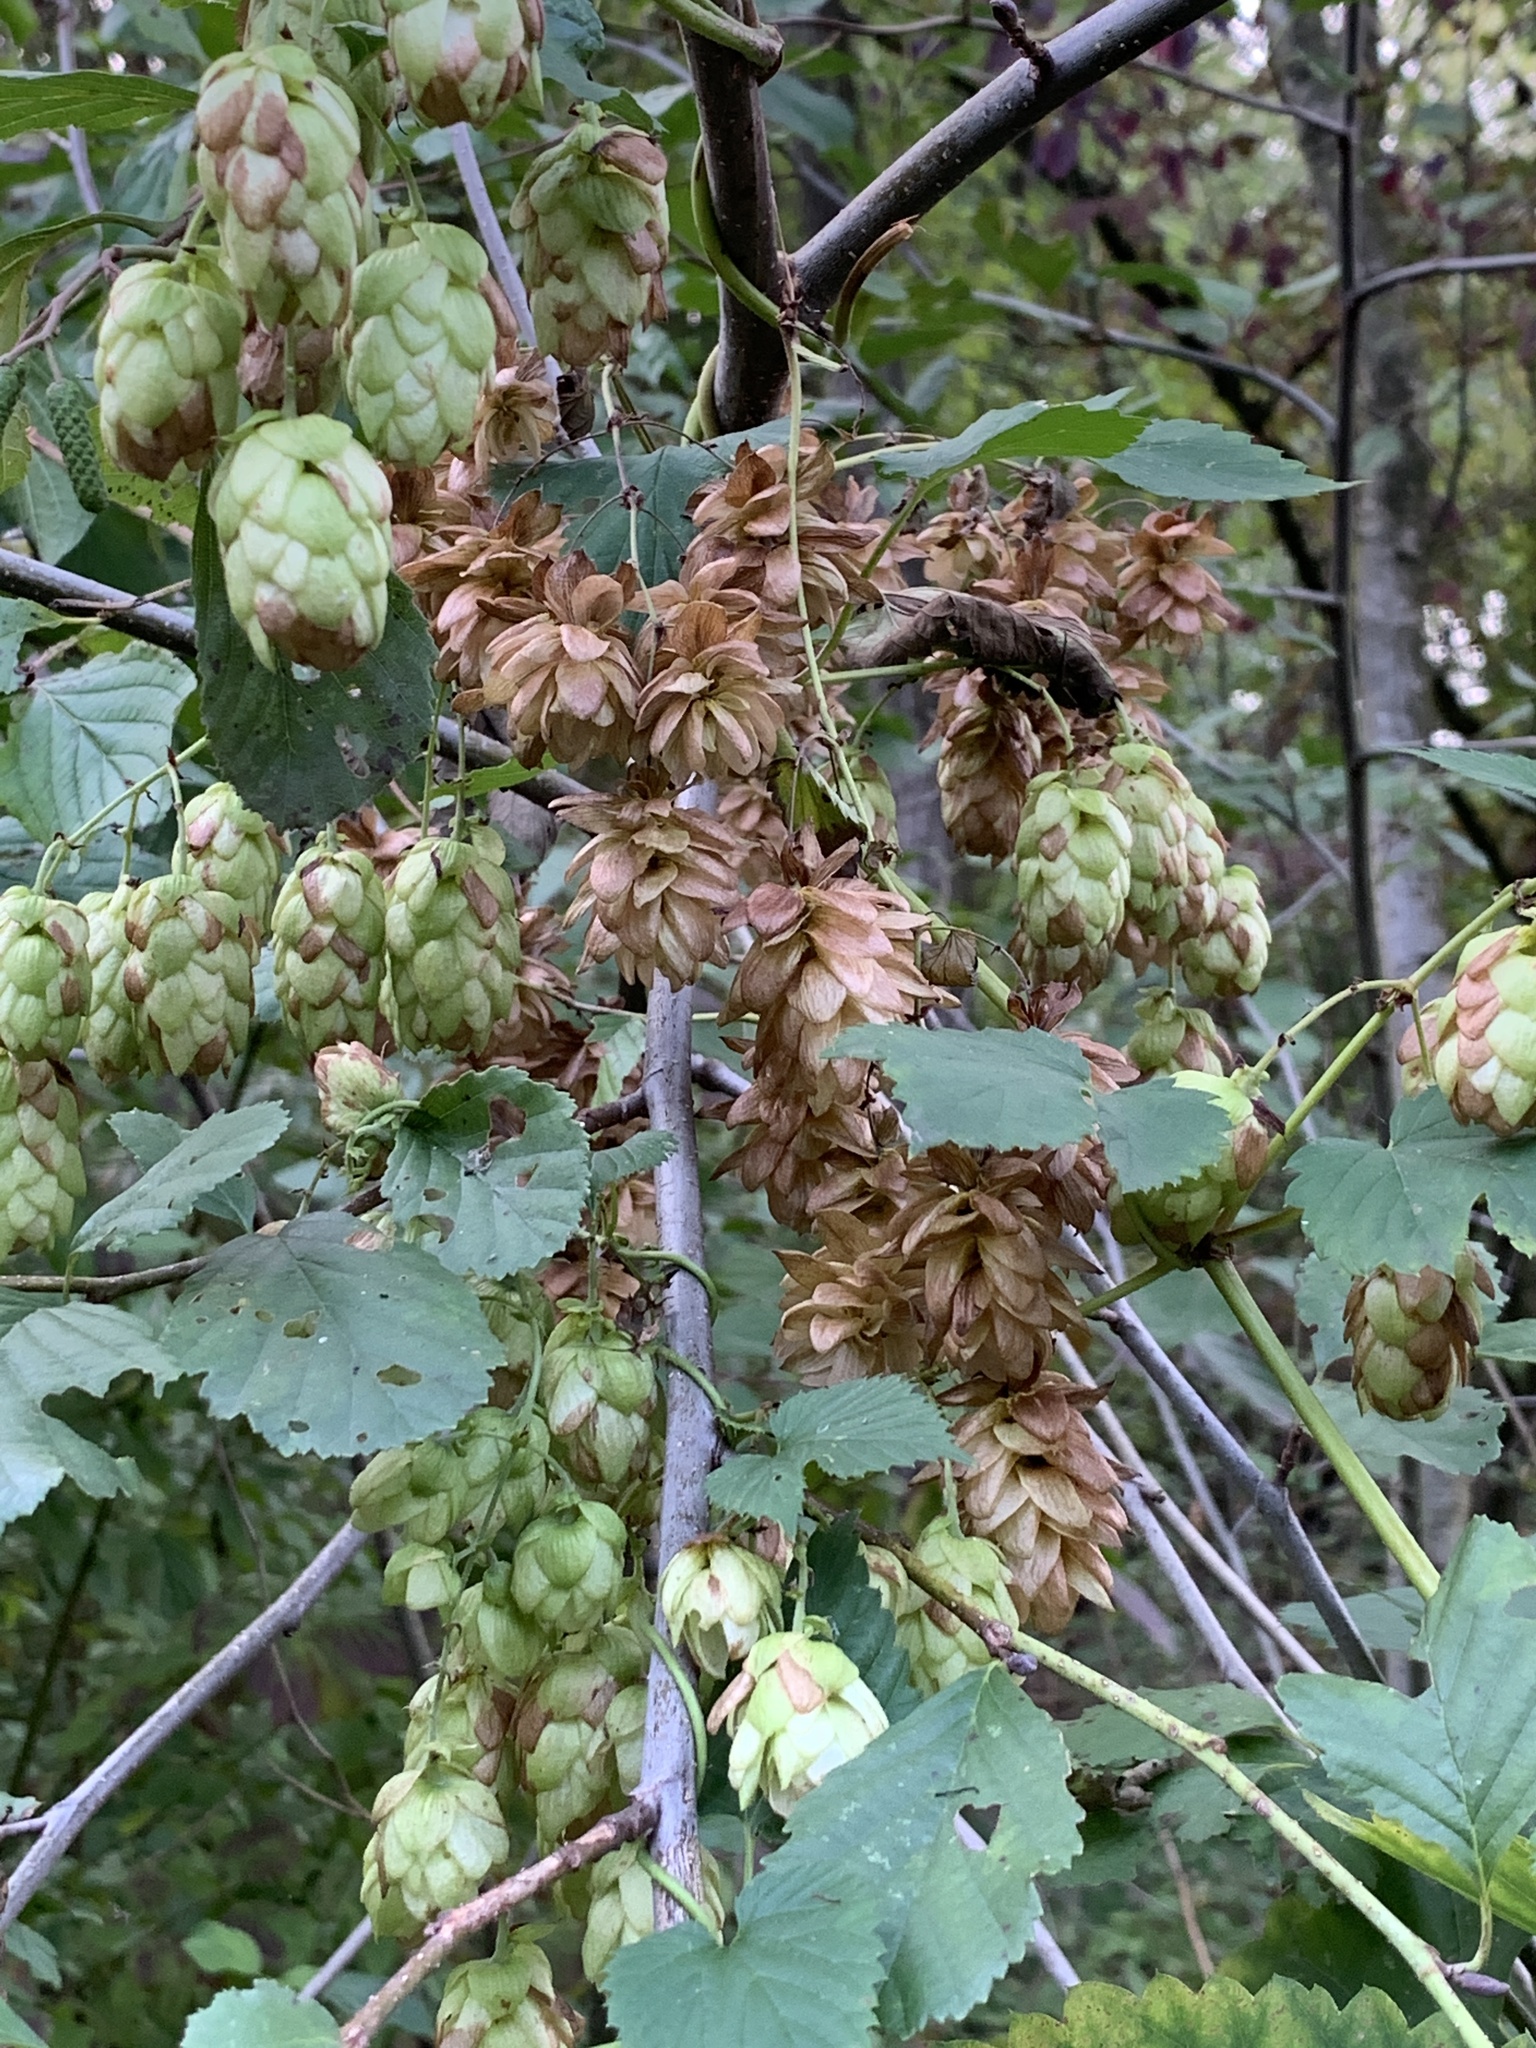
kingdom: Plantae
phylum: Tracheophyta
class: Magnoliopsida
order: Rosales
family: Cannabaceae
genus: Humulus
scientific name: Humulus lupulus
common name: Hop
